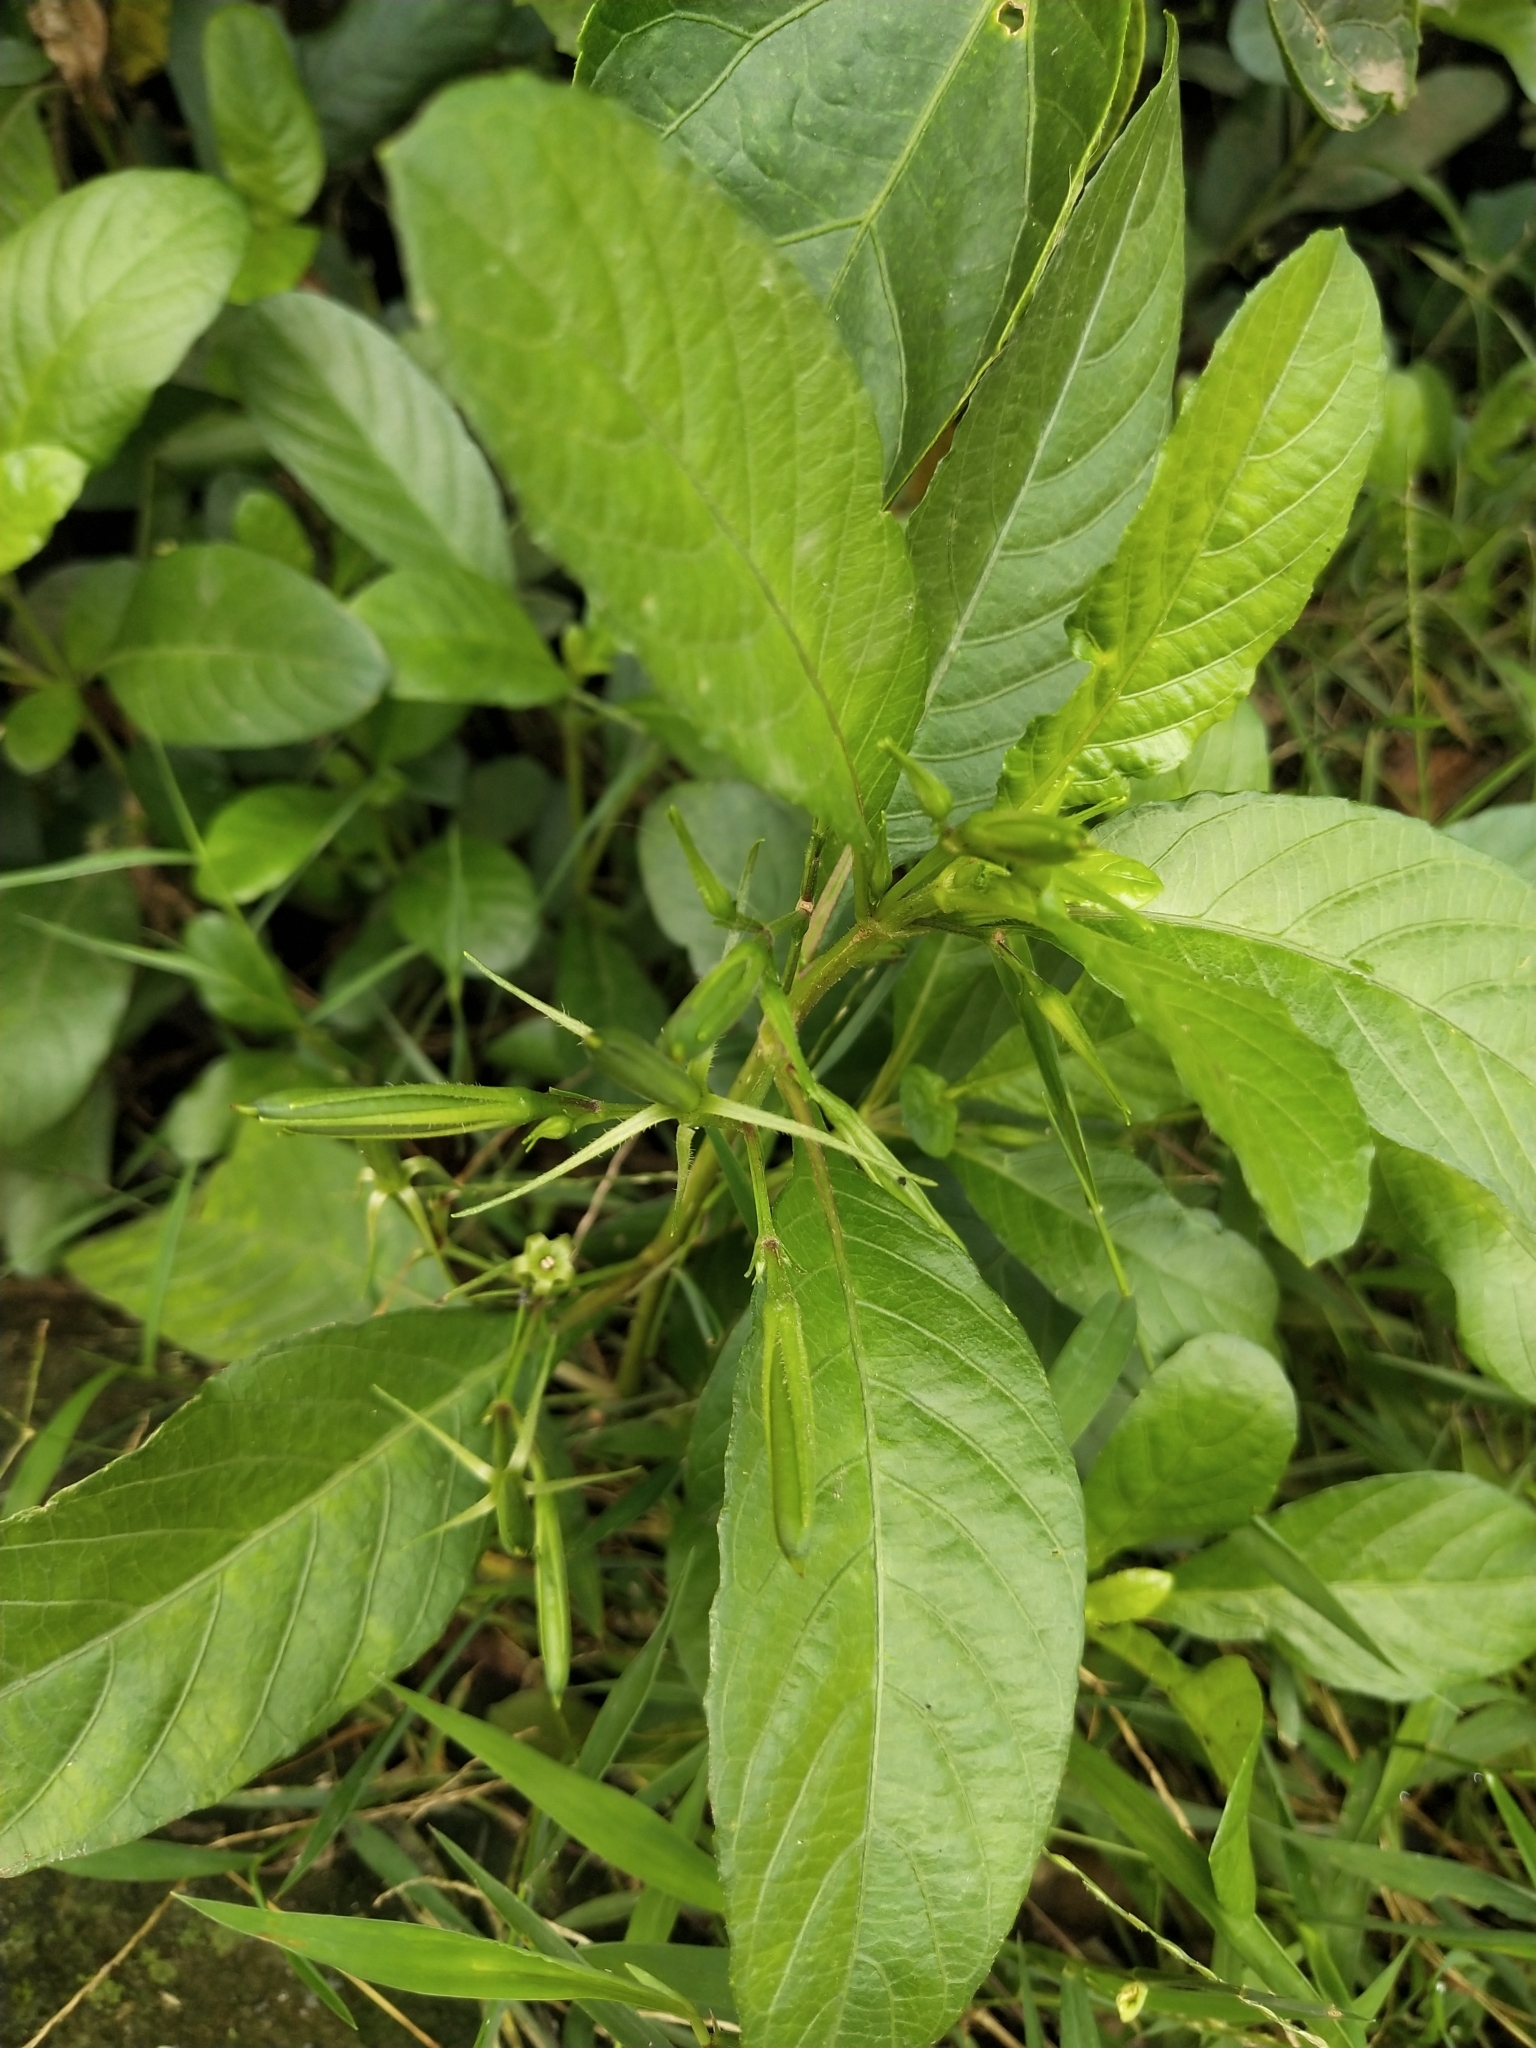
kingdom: Plantae
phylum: Tracheophyta
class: Magnoliopsida
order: Lamiales
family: Acanthaceae
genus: Ruellia
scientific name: Ruellia tuberosa
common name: Devil's bit
